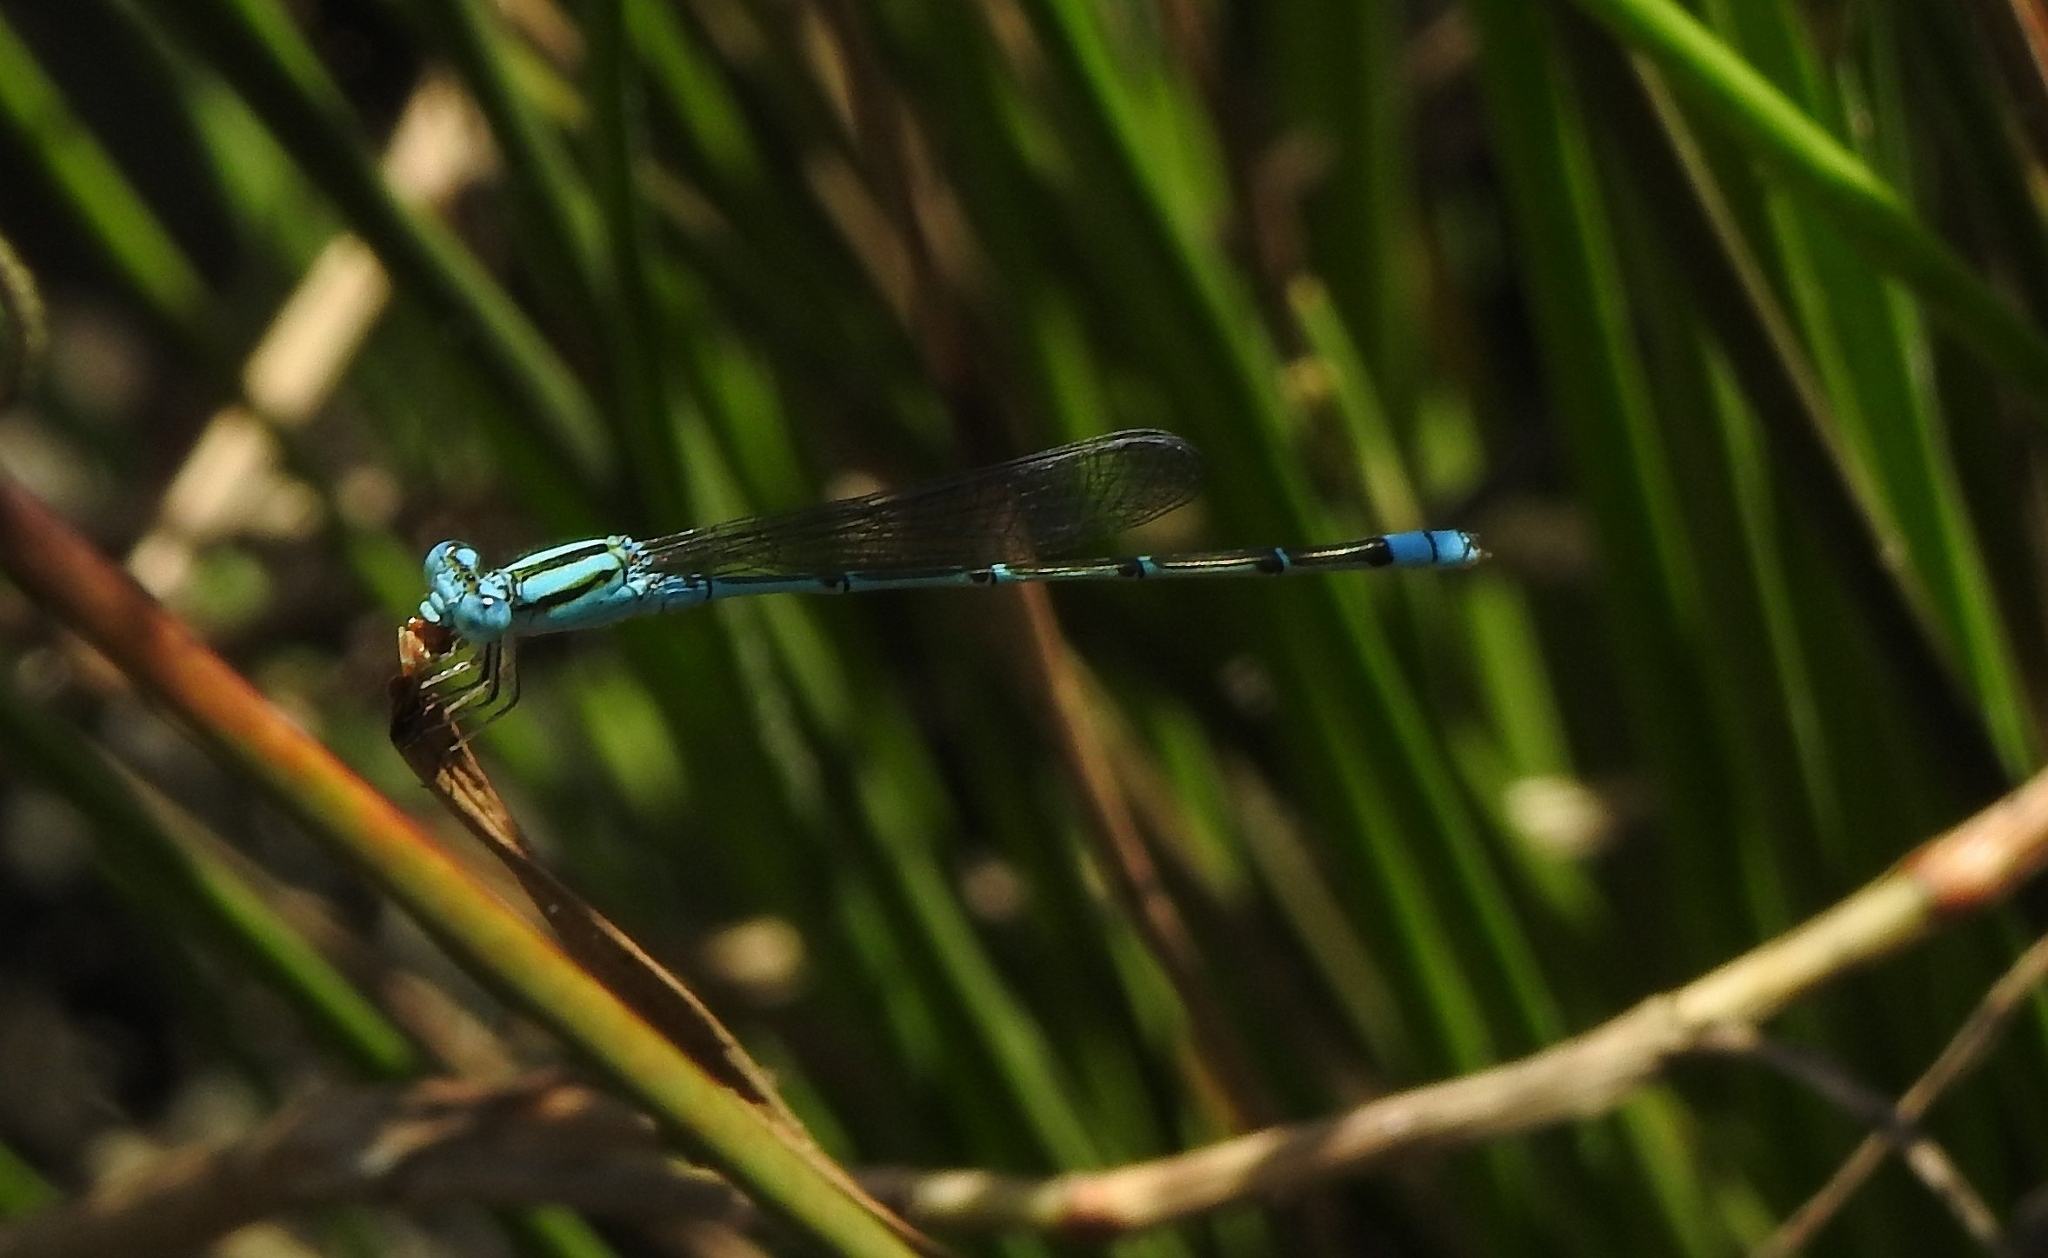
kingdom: Animalia
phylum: Arthropoda
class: Insecta
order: Odonata
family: Coenagrionidae
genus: Pseudagrion
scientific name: Pseudagrion microcephalum
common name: Blue riverdamsel
